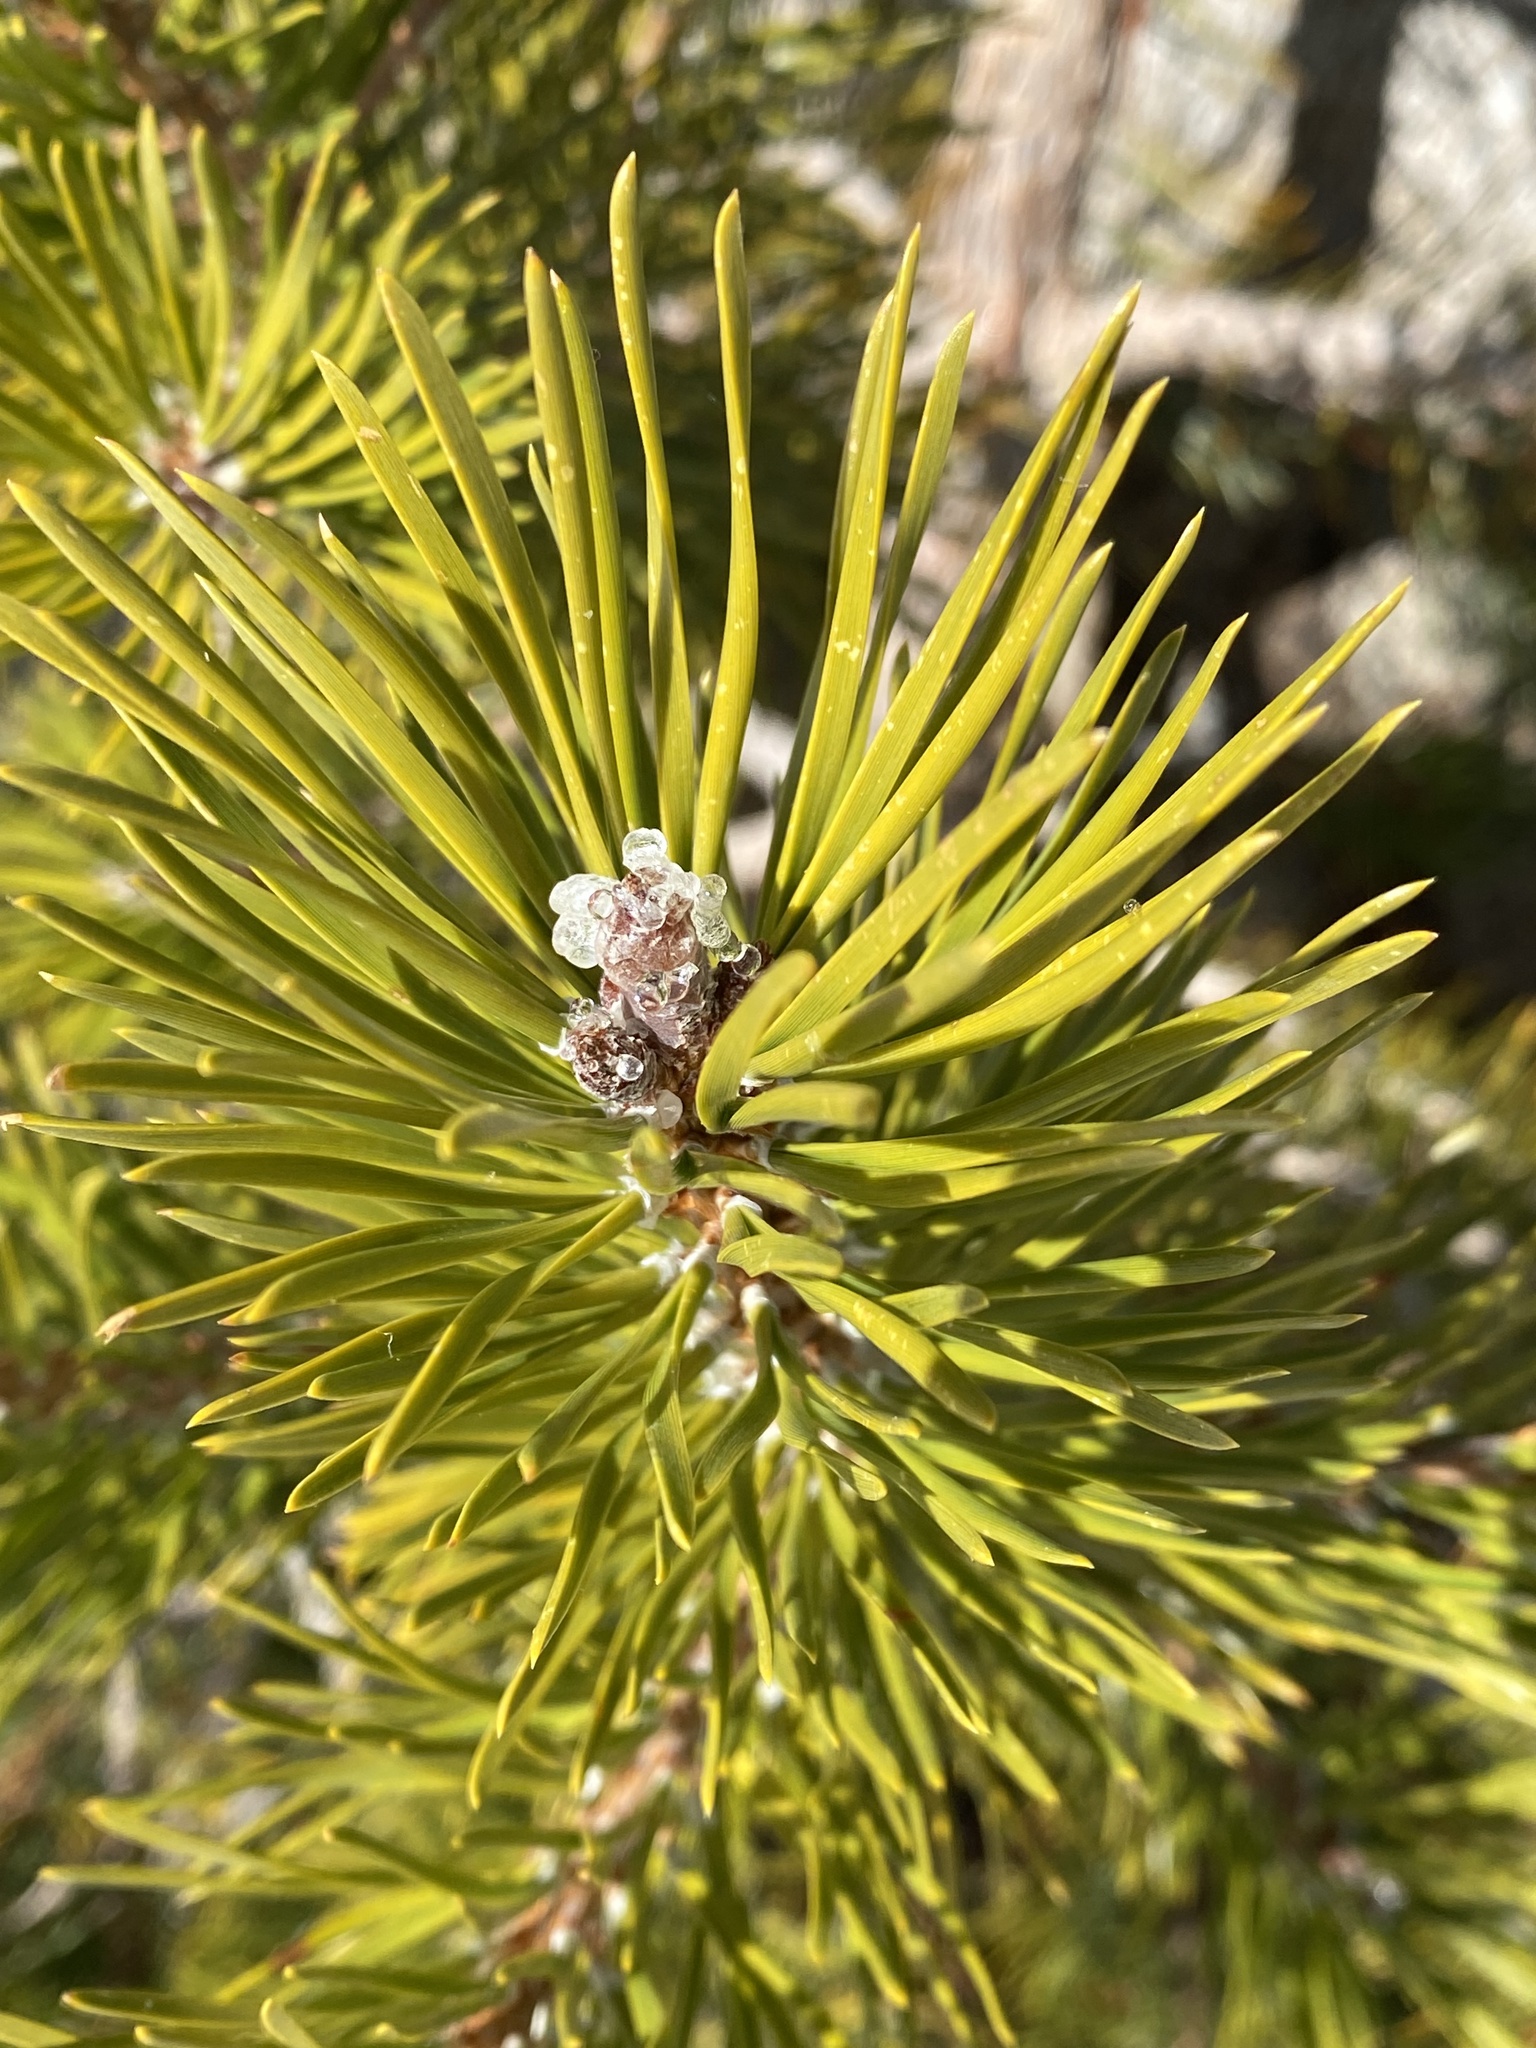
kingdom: Plantae
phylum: Tracheophyta
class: Pinopsida
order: Pinales
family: Pinaceae
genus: Pinus
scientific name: Pinus contorta
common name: Lodgepole pine
